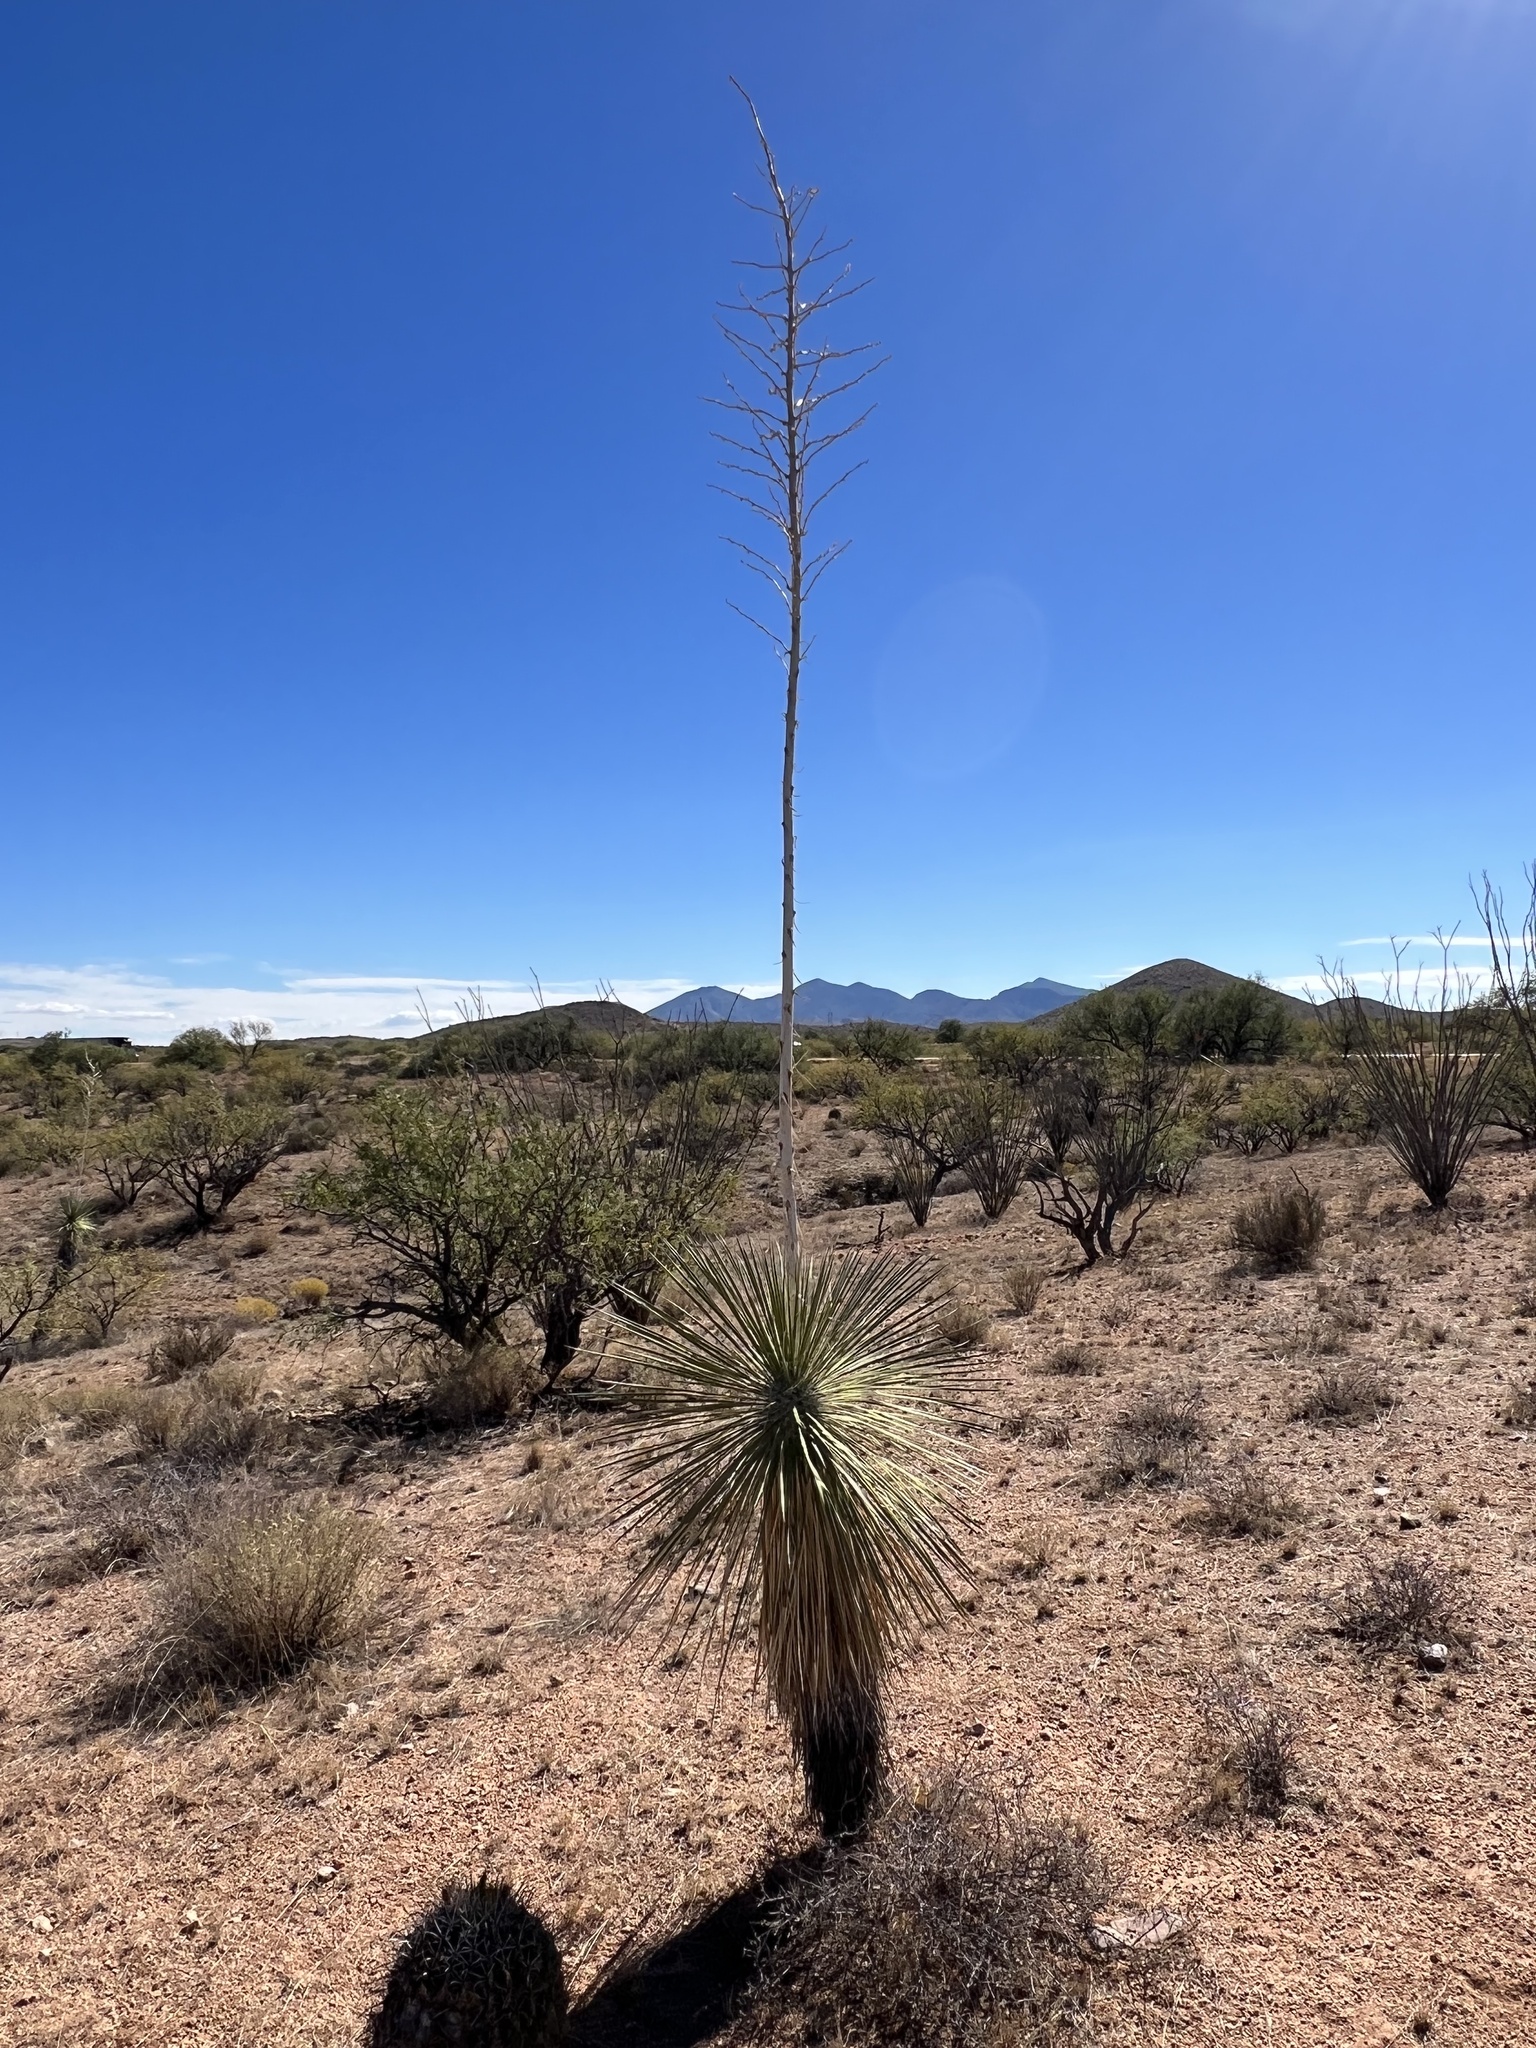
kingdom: Plantae
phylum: Tracheophyta
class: Liliopsida
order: Asparagales
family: Asparagaceae
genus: Yucca
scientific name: Yucca elata
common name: Palmella
